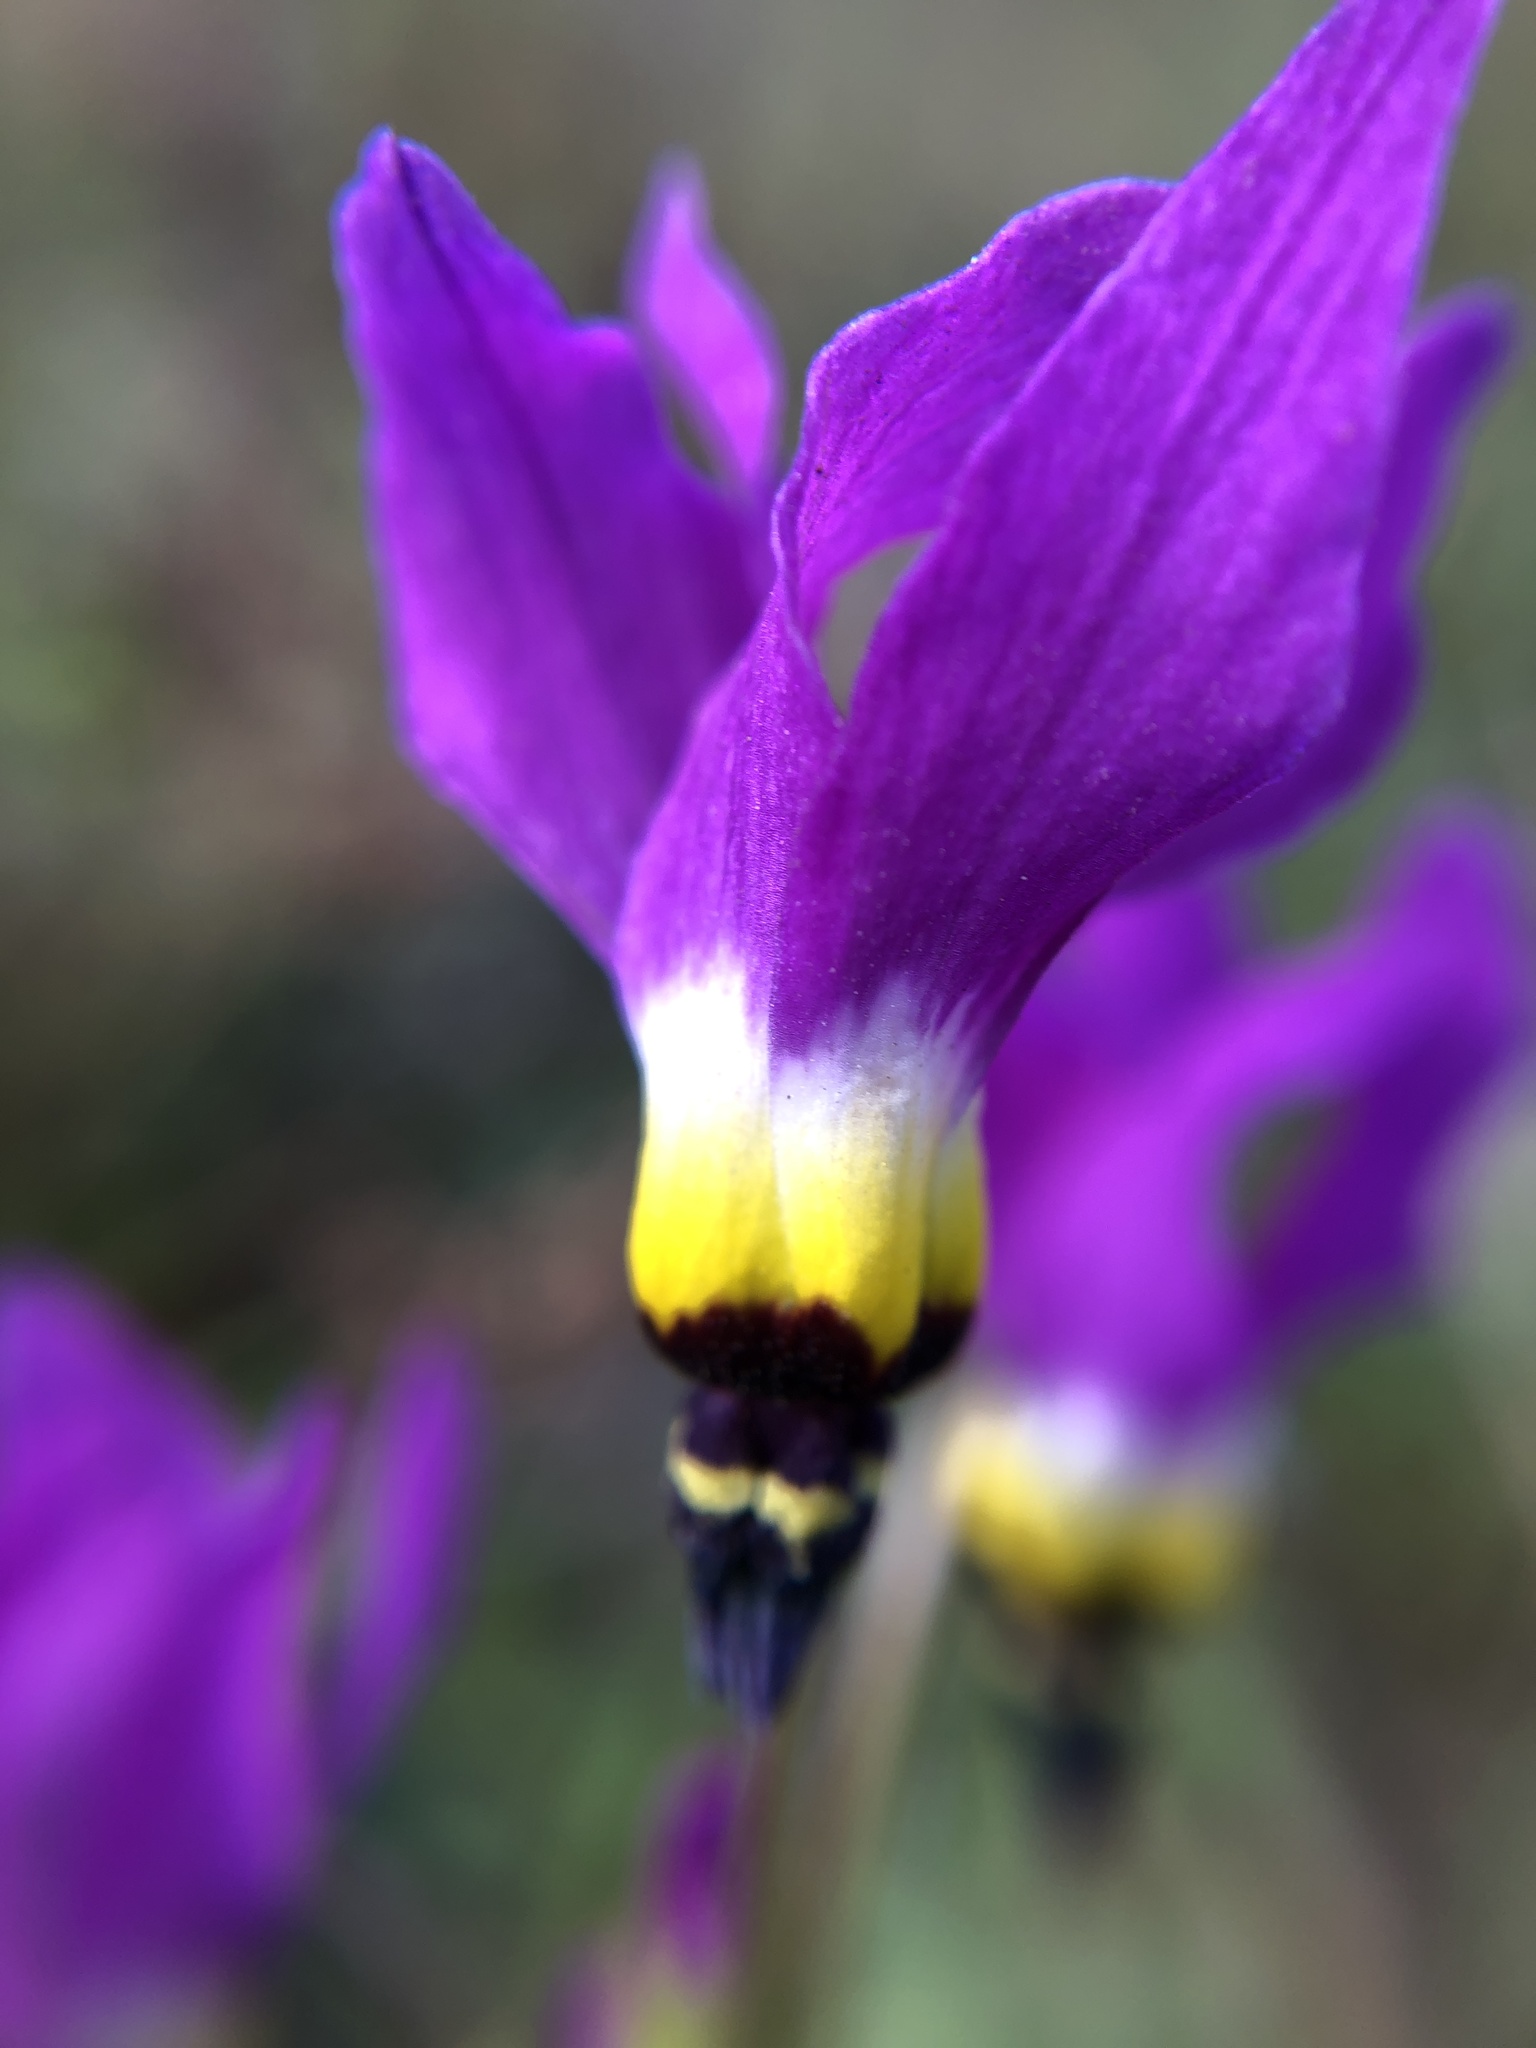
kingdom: Plantae
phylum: Tracheophyta
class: Magnoliopsida
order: Ericales
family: Primulaceae
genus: Dodecatheon
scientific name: Dodecatheon clevelandii
